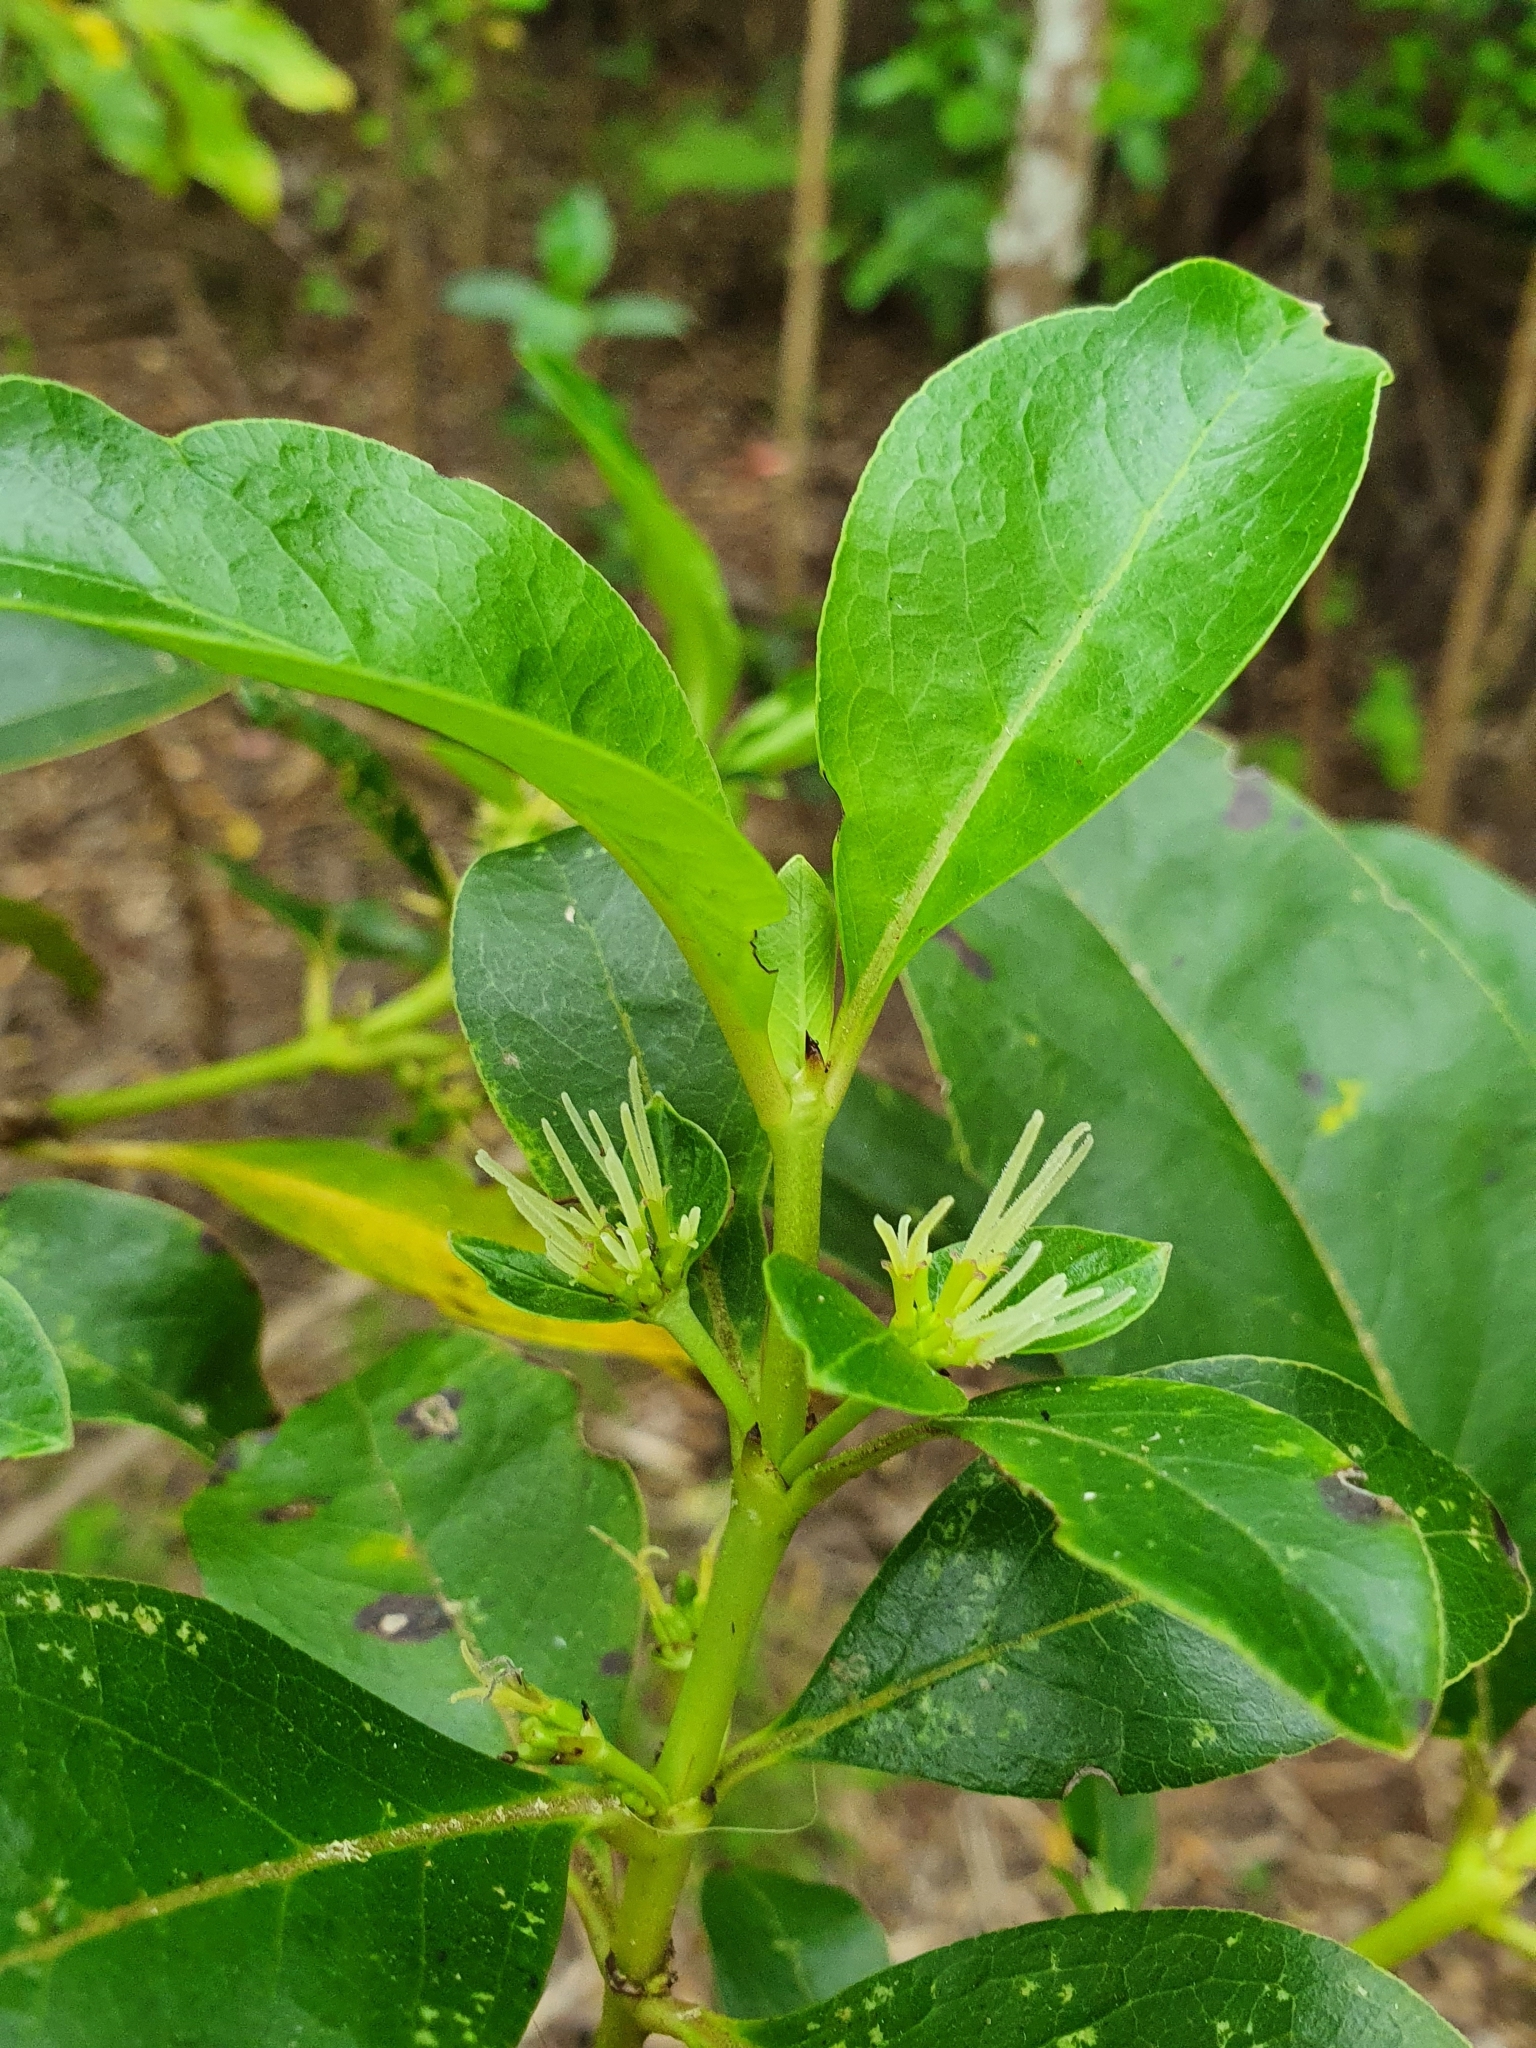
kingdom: Plantae
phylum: Tracheophyta
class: Magnoliopsida
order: Gentianales
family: Rubiaceae
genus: Coprosma
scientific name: Coprosma robusta
